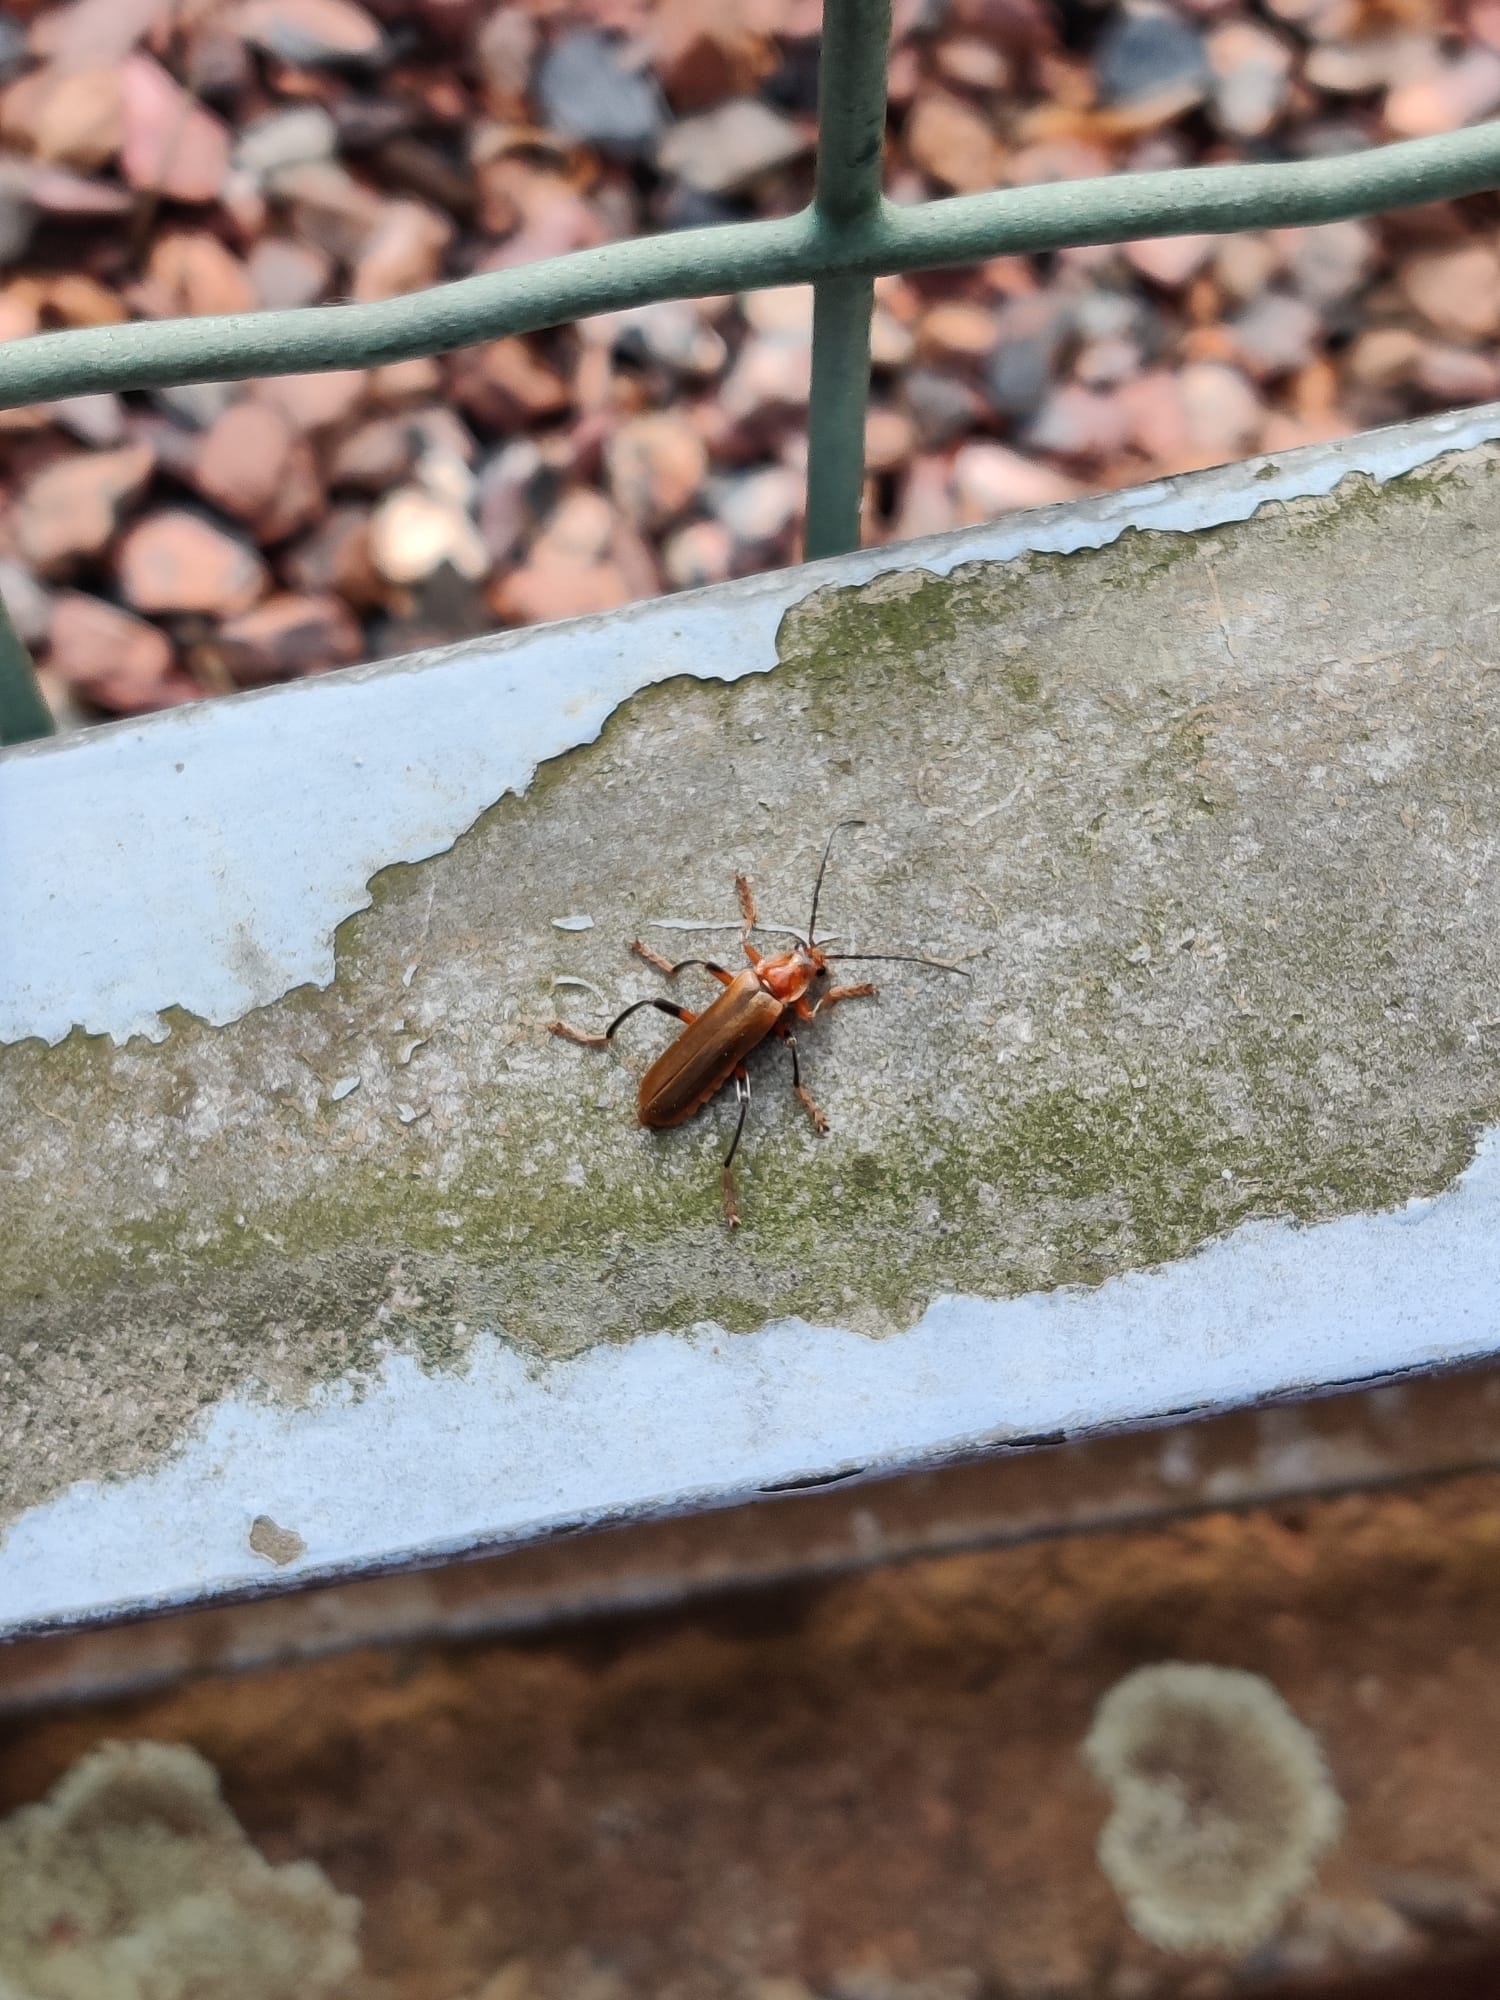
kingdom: Animalia
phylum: Arthropoda
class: Insecta
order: Coleoptera
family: Cantharidae
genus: Cantharis
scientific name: Cantharis livida
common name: Livid soldier beetle
